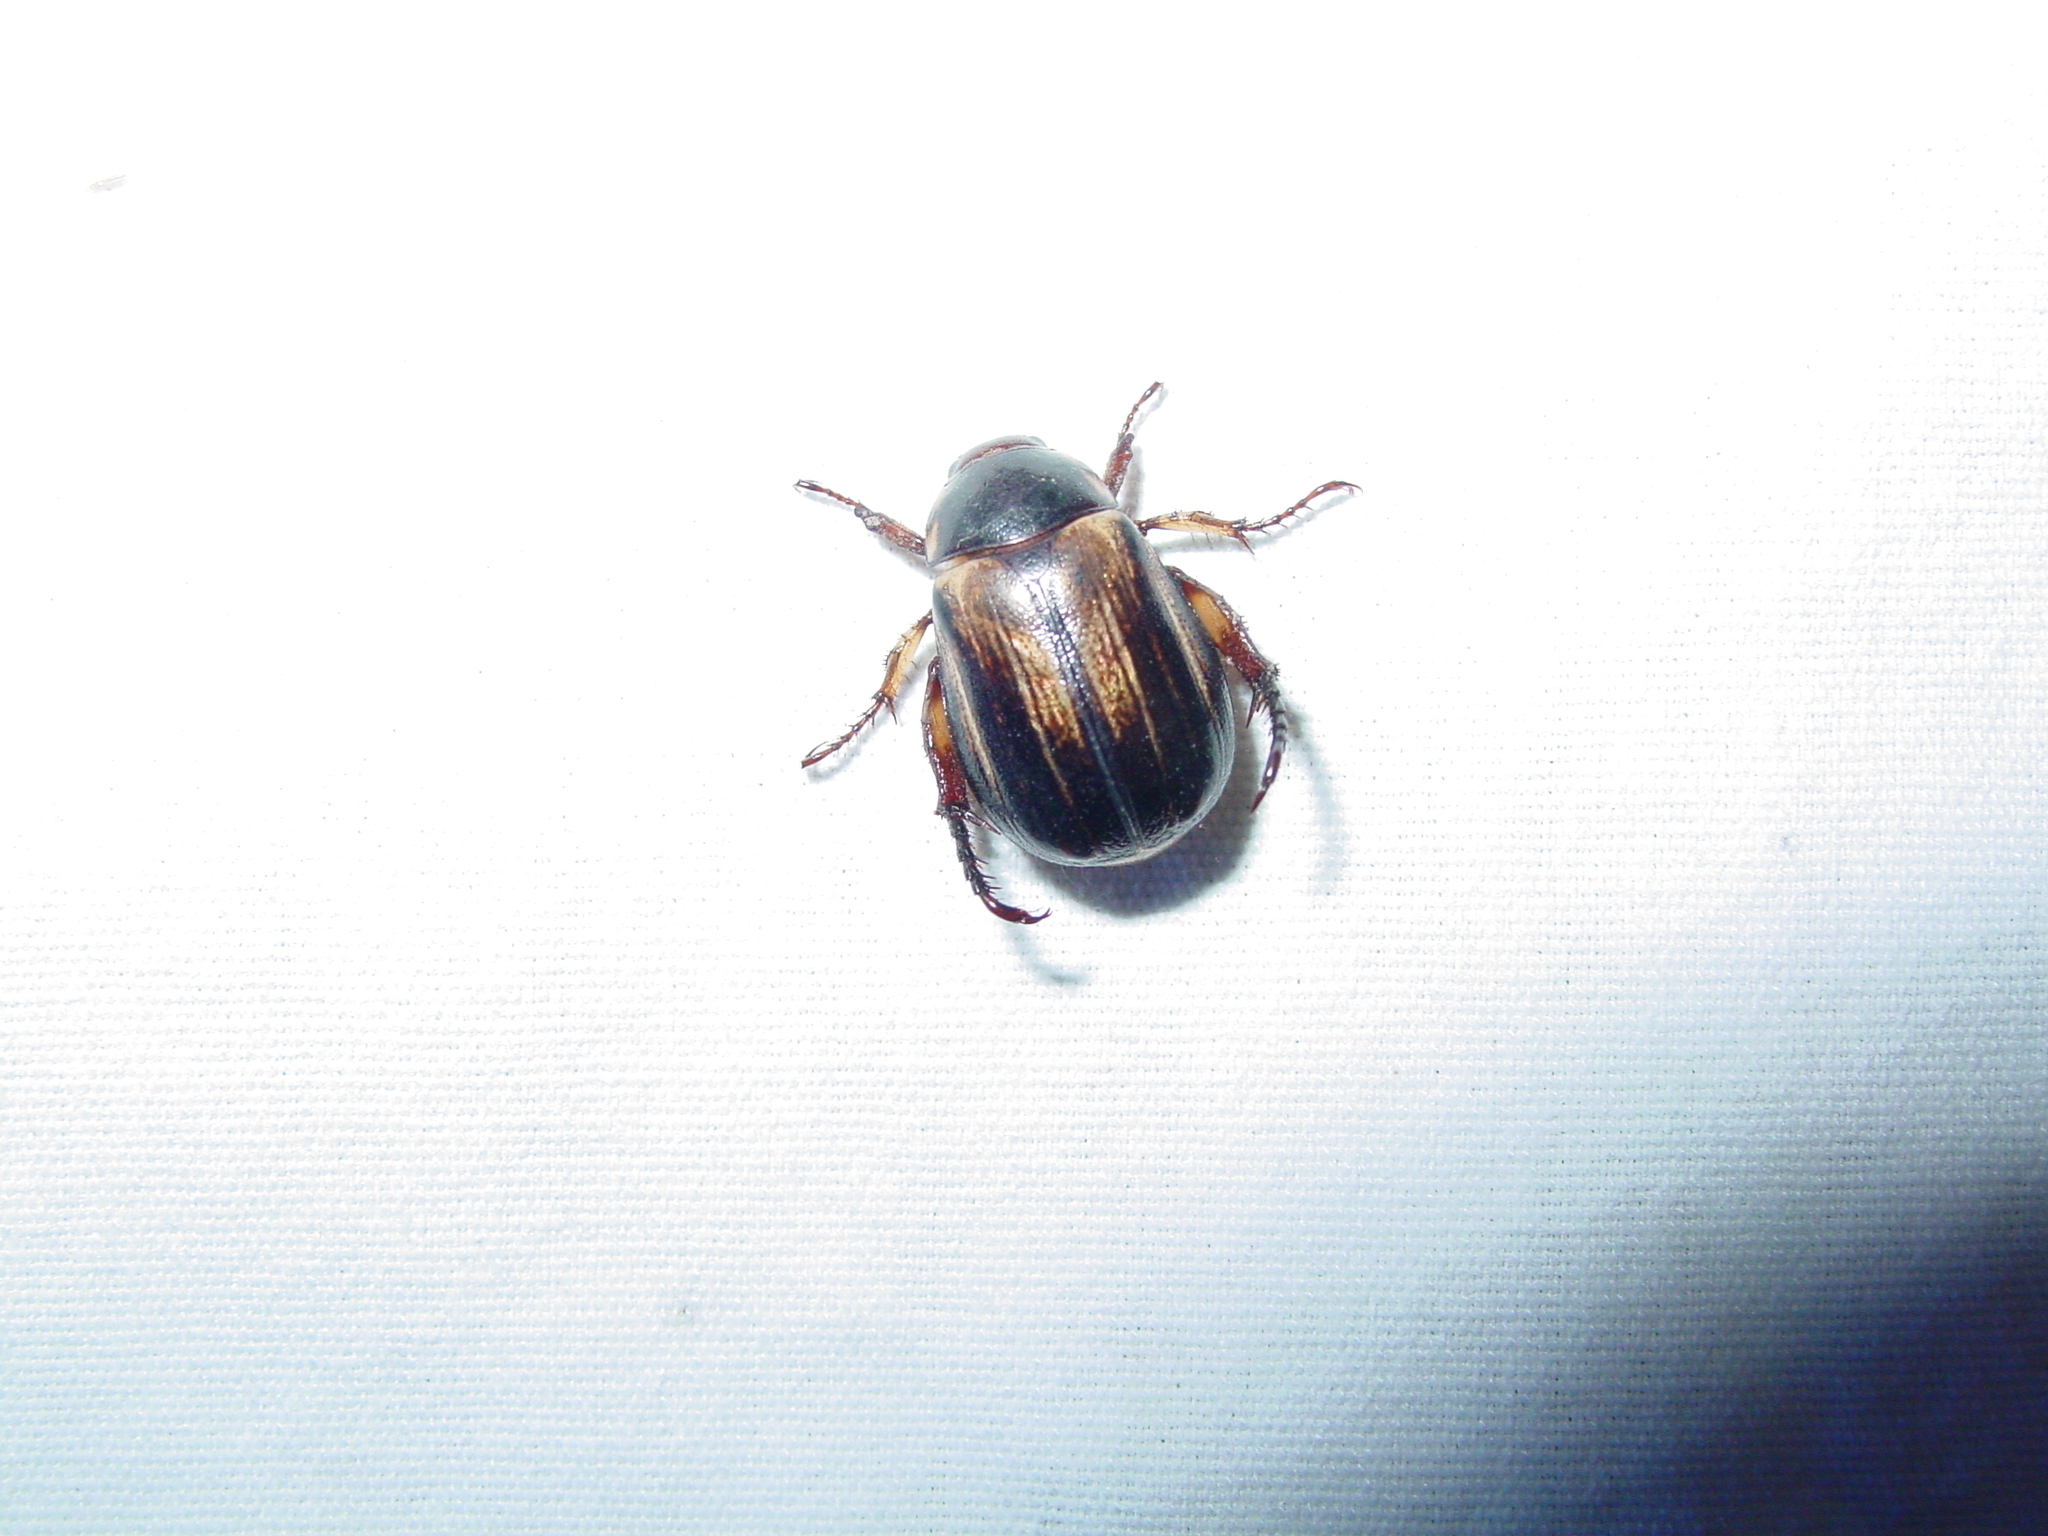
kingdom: Animalia
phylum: Arthropoda
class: Insecta
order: Coleoptera
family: Scarabaeidae
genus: Paranomala
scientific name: Paranomala nimbosa
